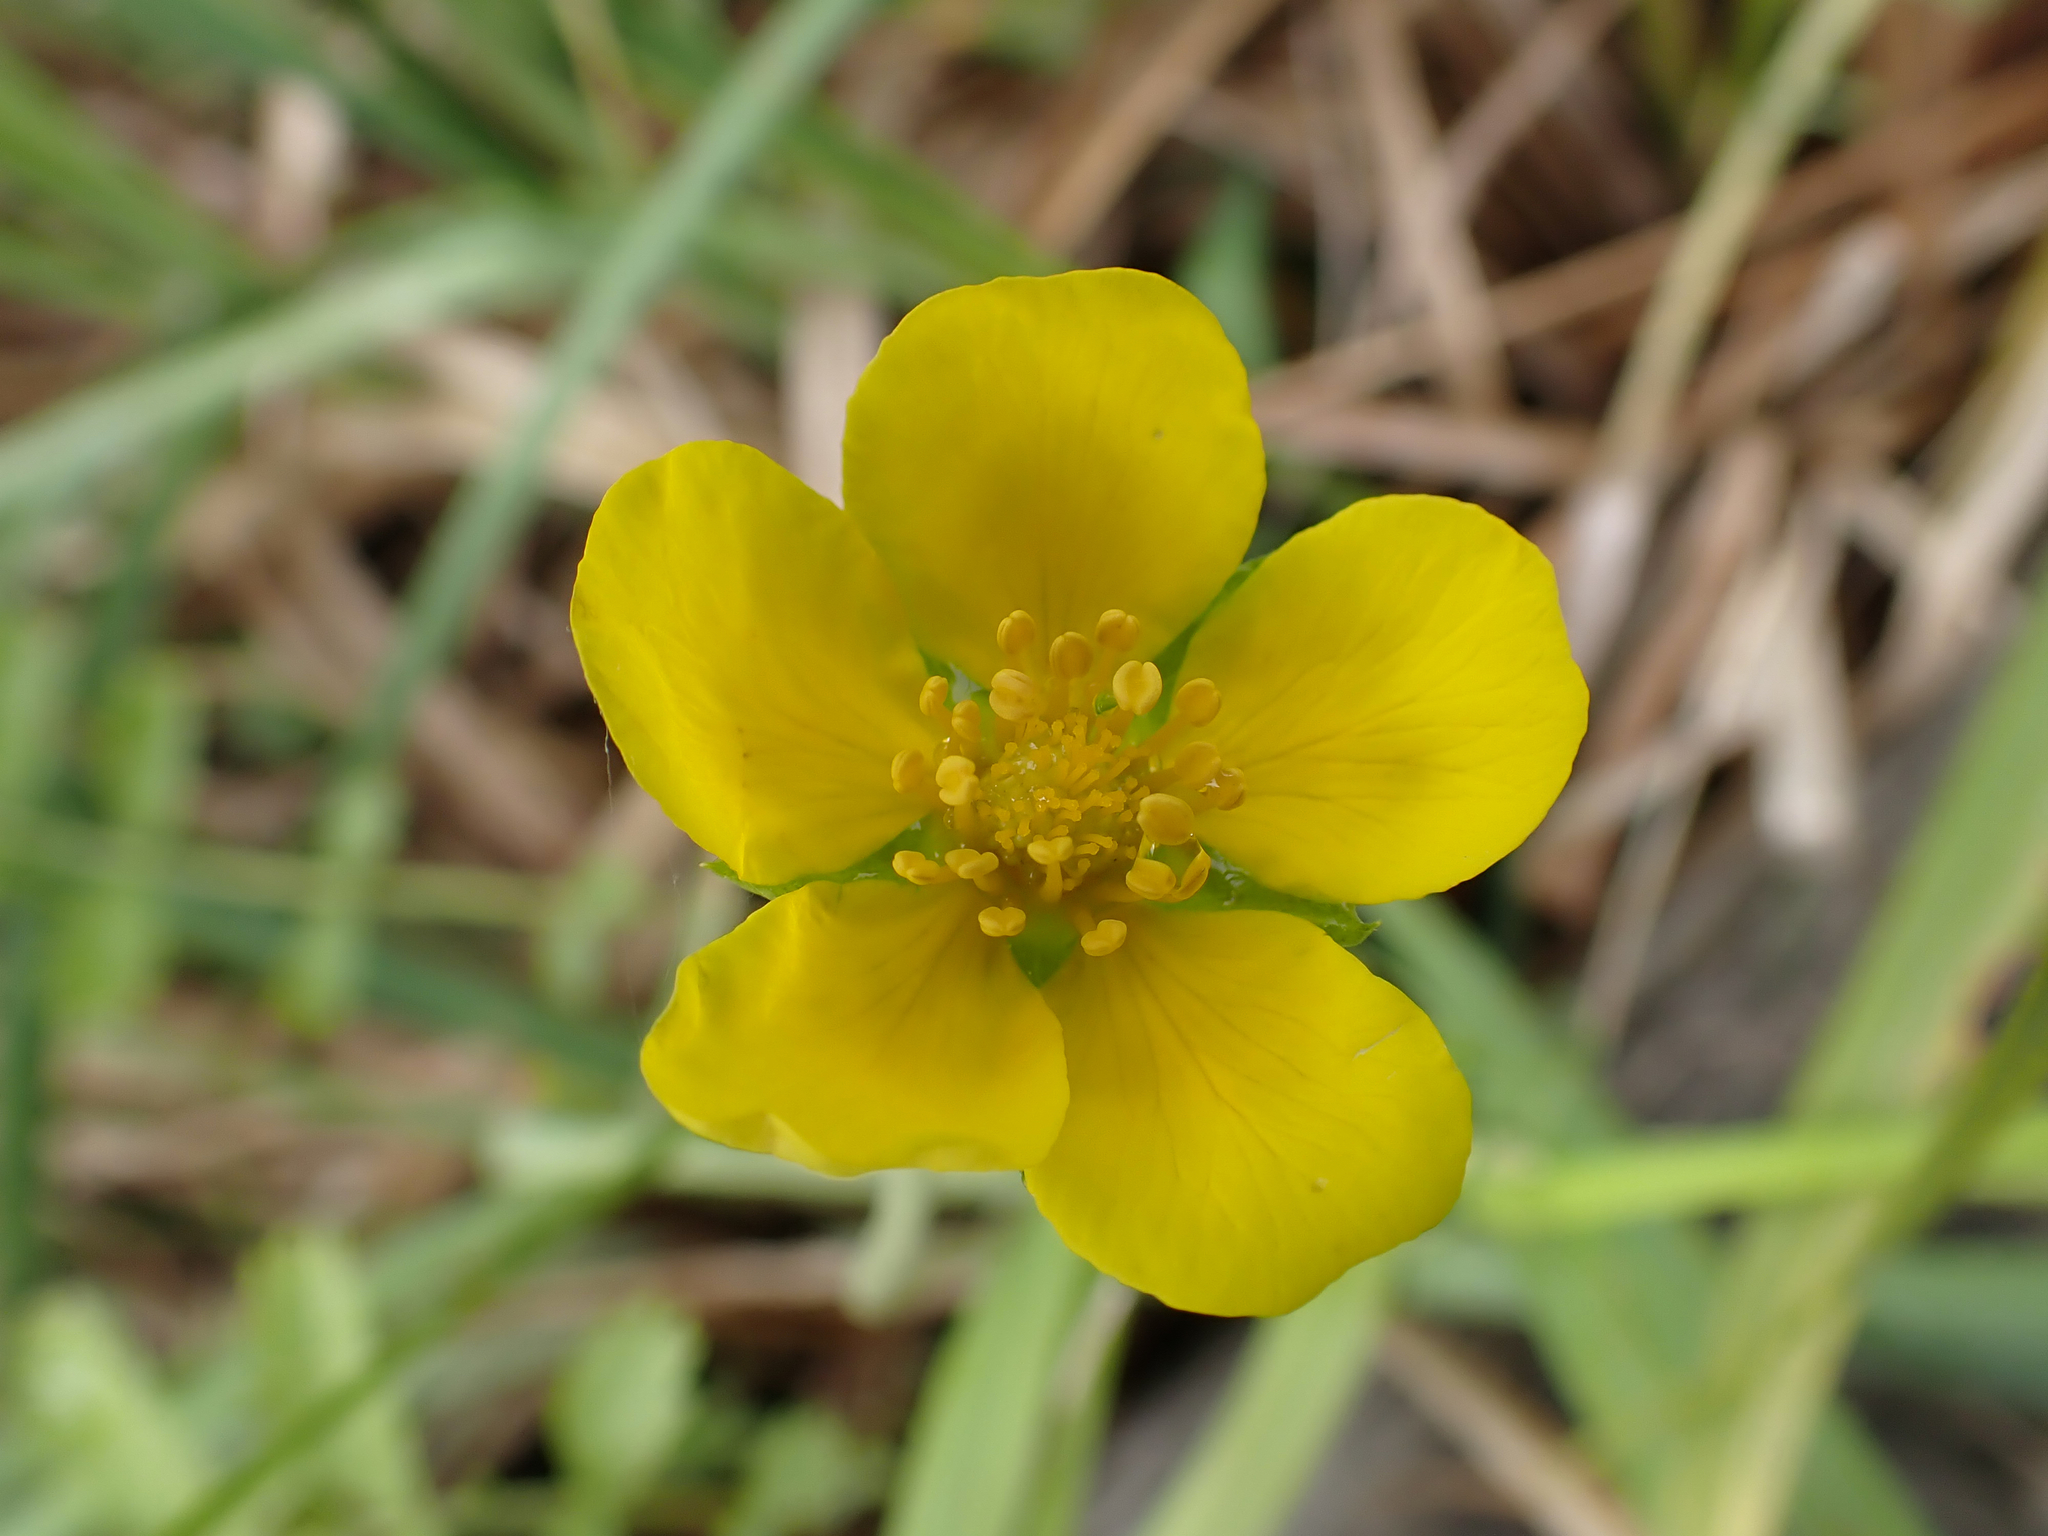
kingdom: Plantae
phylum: Tracheophyta
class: Magnoliopsida
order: Rosales
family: Rosaceae
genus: Argentina
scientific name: Argentina anserina
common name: Common silverweed
